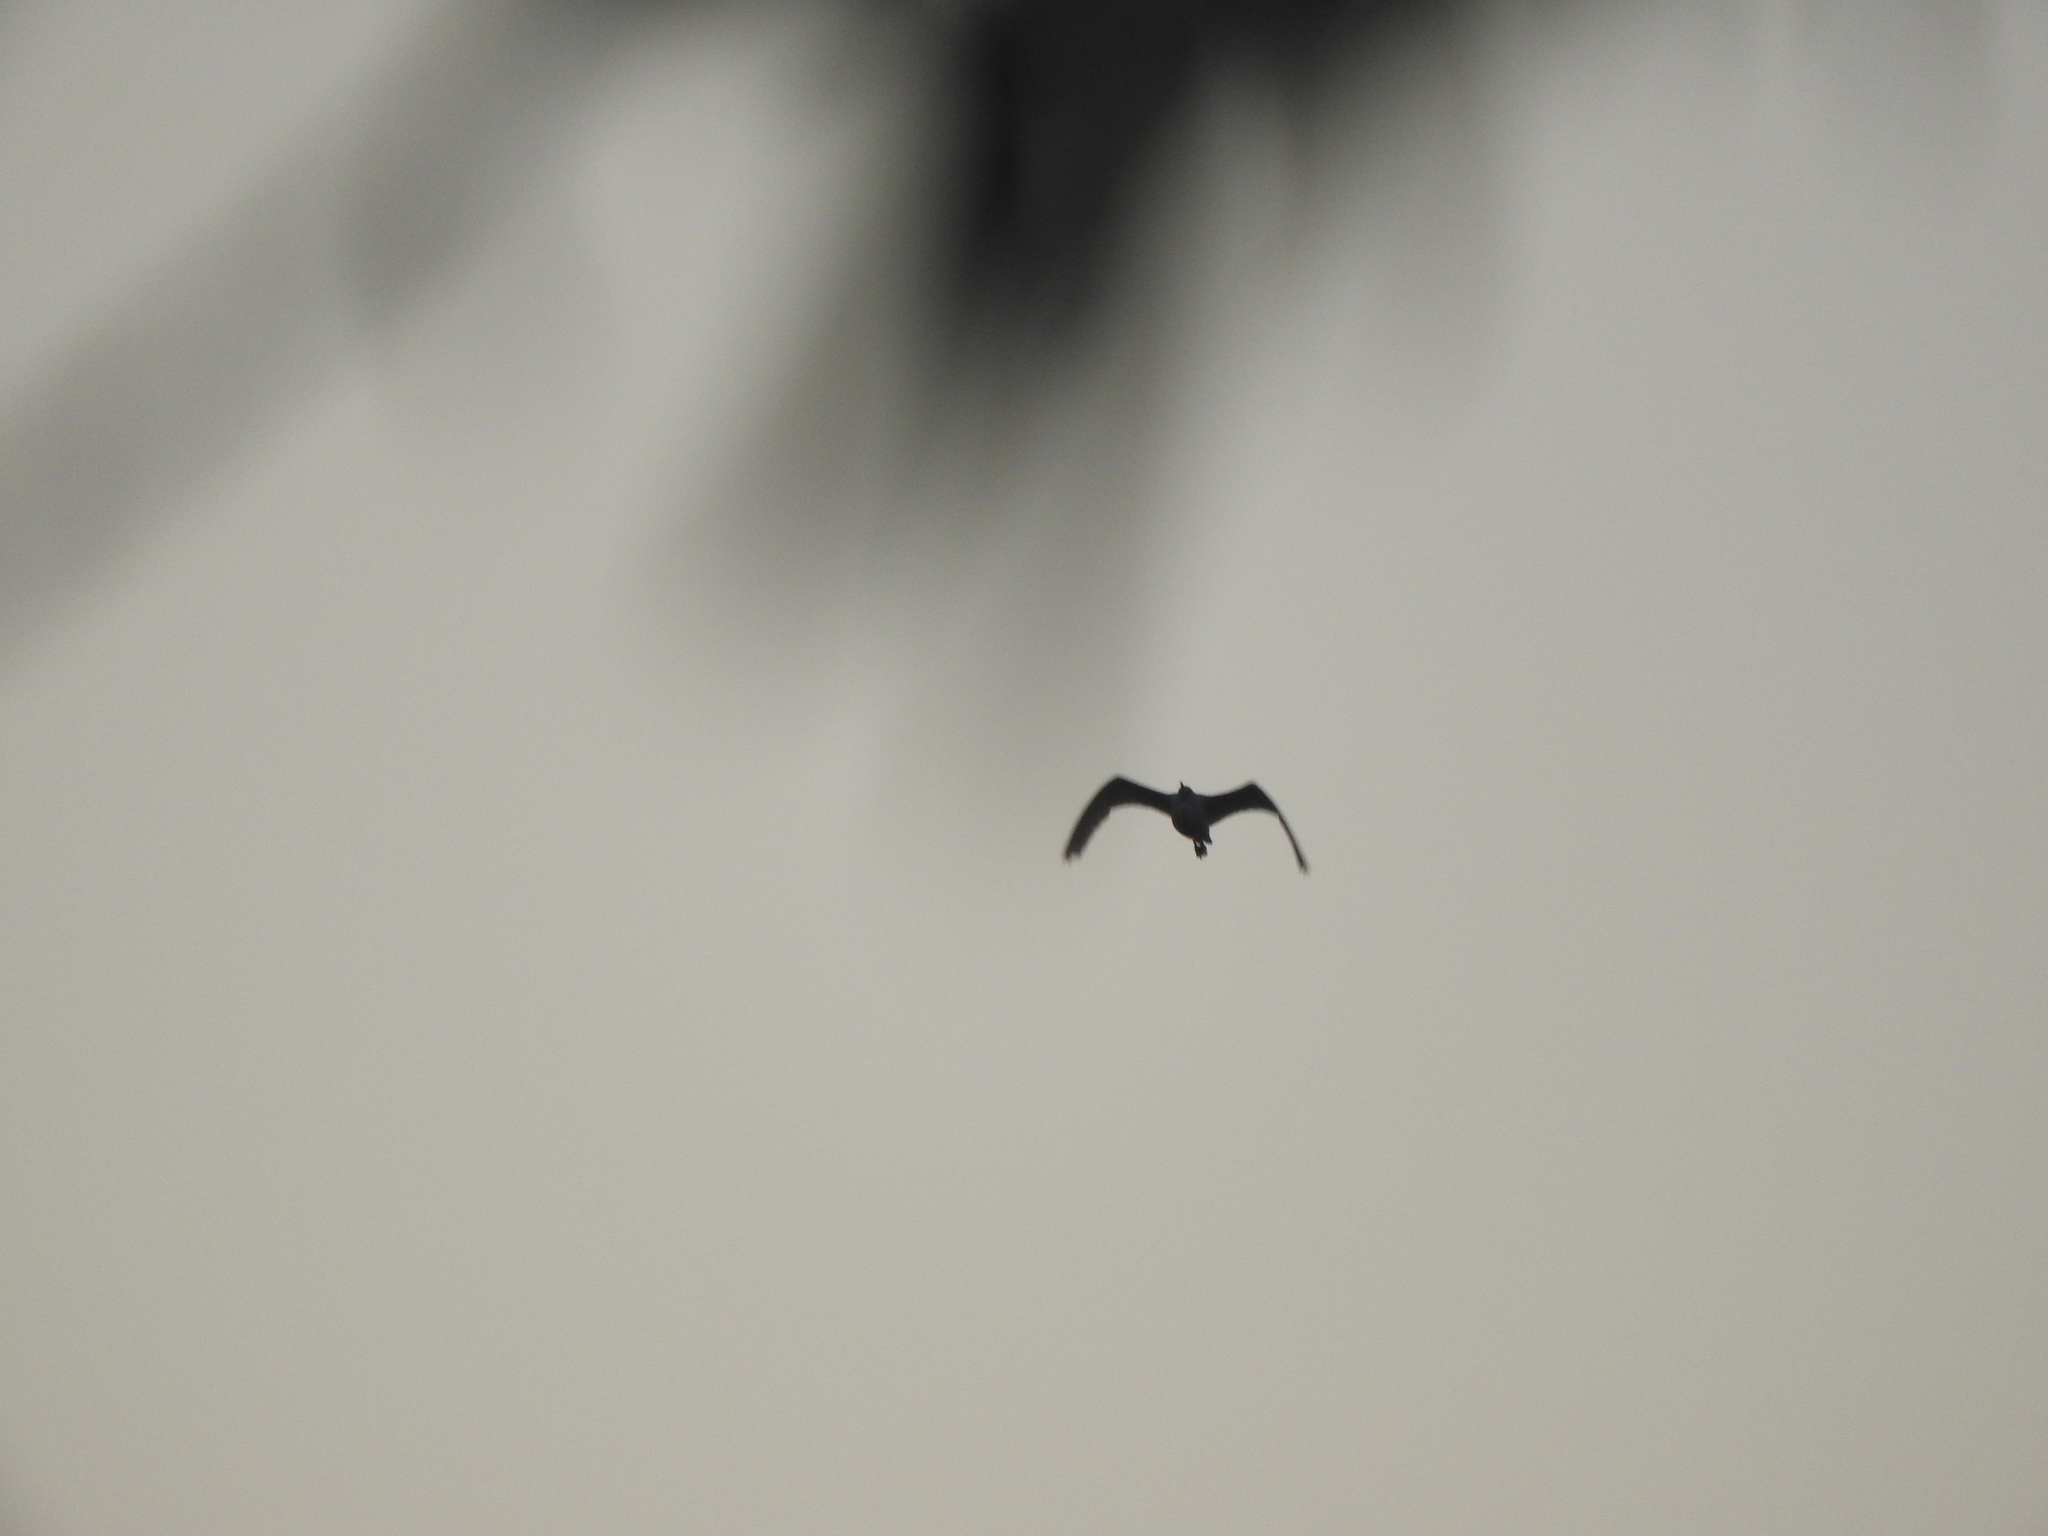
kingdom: Animalia
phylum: Chordata
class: Aves
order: Pelecaniformes
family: Ardeidae
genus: Bubulcus
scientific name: Bubulcus ibis
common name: Cattle egret
